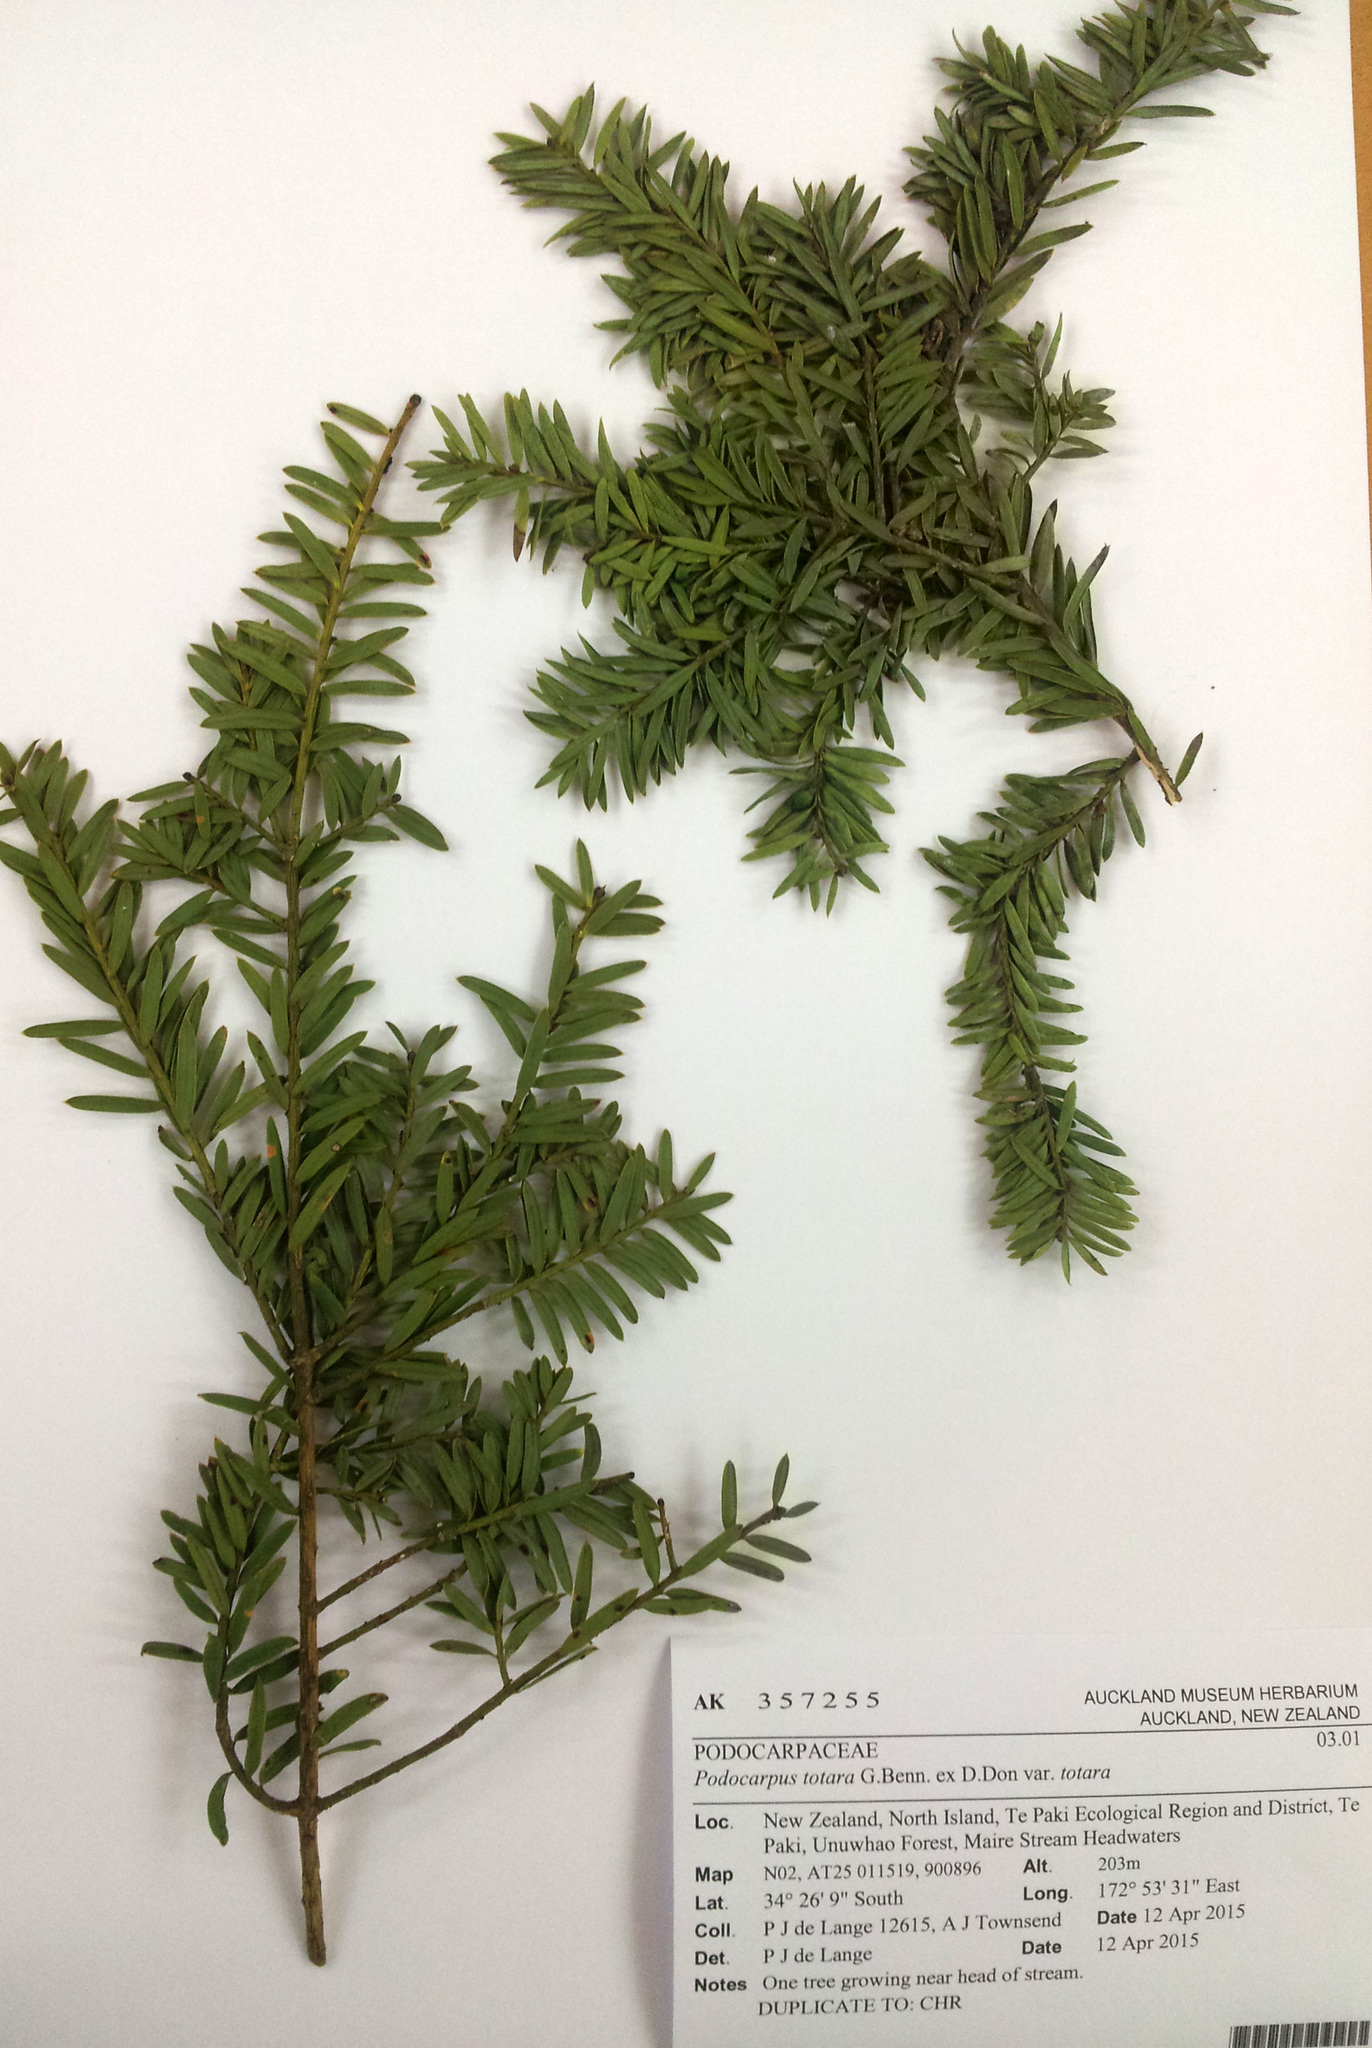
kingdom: Plantae
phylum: Tracheophyta
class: Pinopsida
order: Pinales
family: Podocarpaceae
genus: Podocarpus
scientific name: Podocarpus totara
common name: Totara
